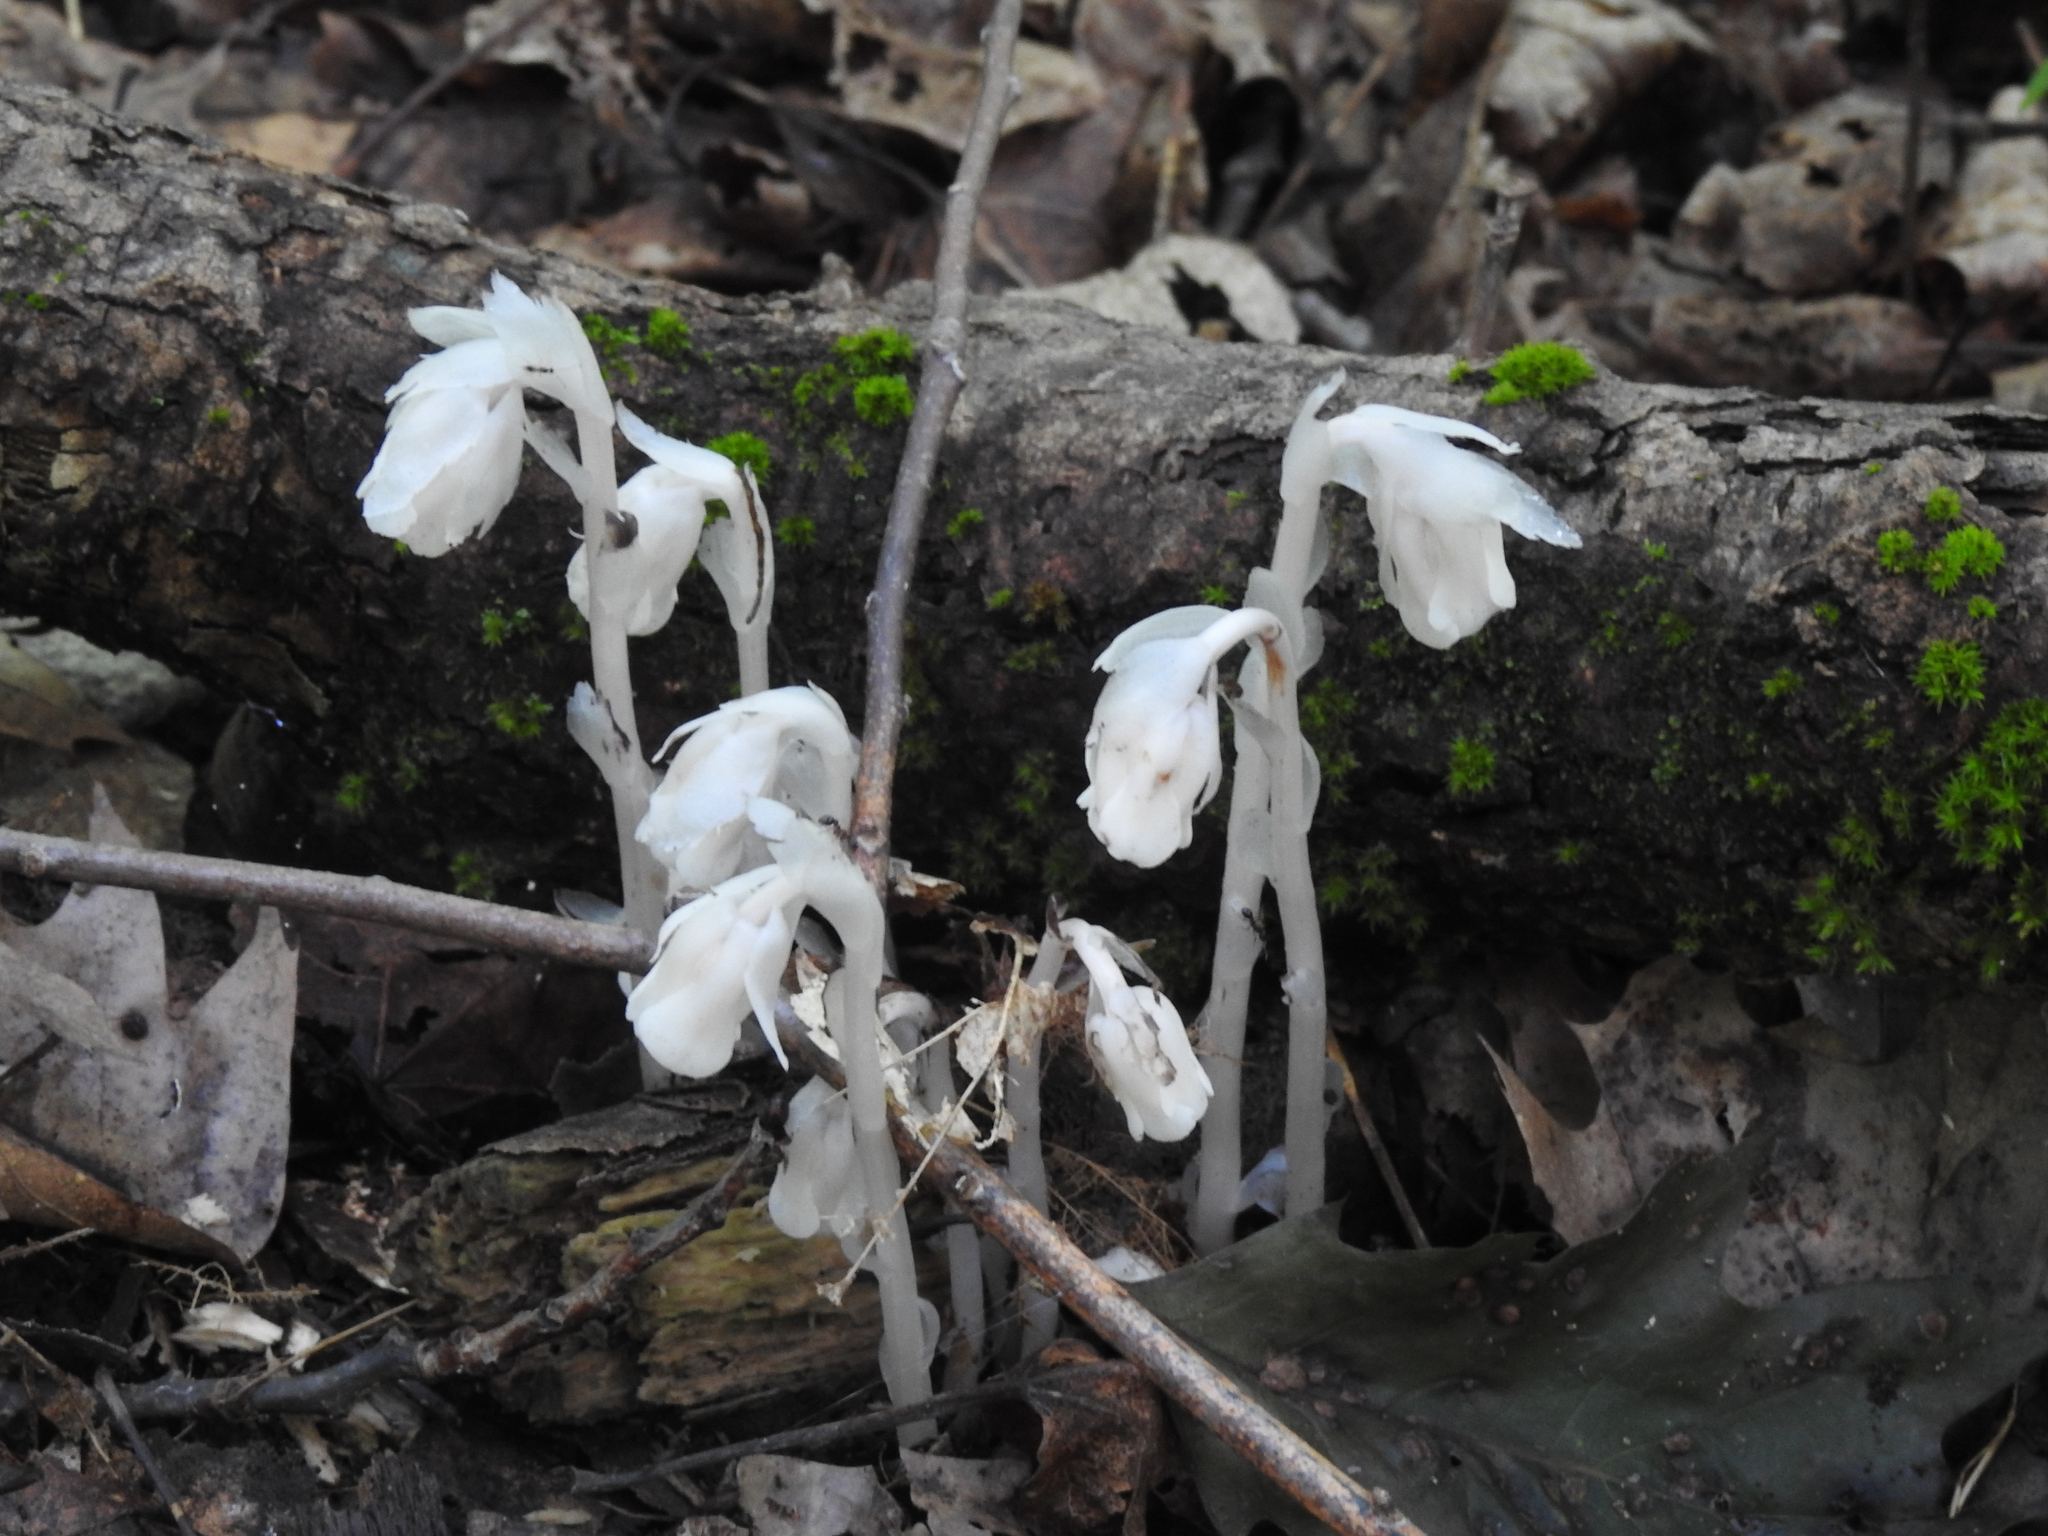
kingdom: Plantae
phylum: Tracheophyta
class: Magnoliopsida
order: Ericales
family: Ericaceae
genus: Monotropa
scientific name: Monotropa uniflora
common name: Convulsion root
